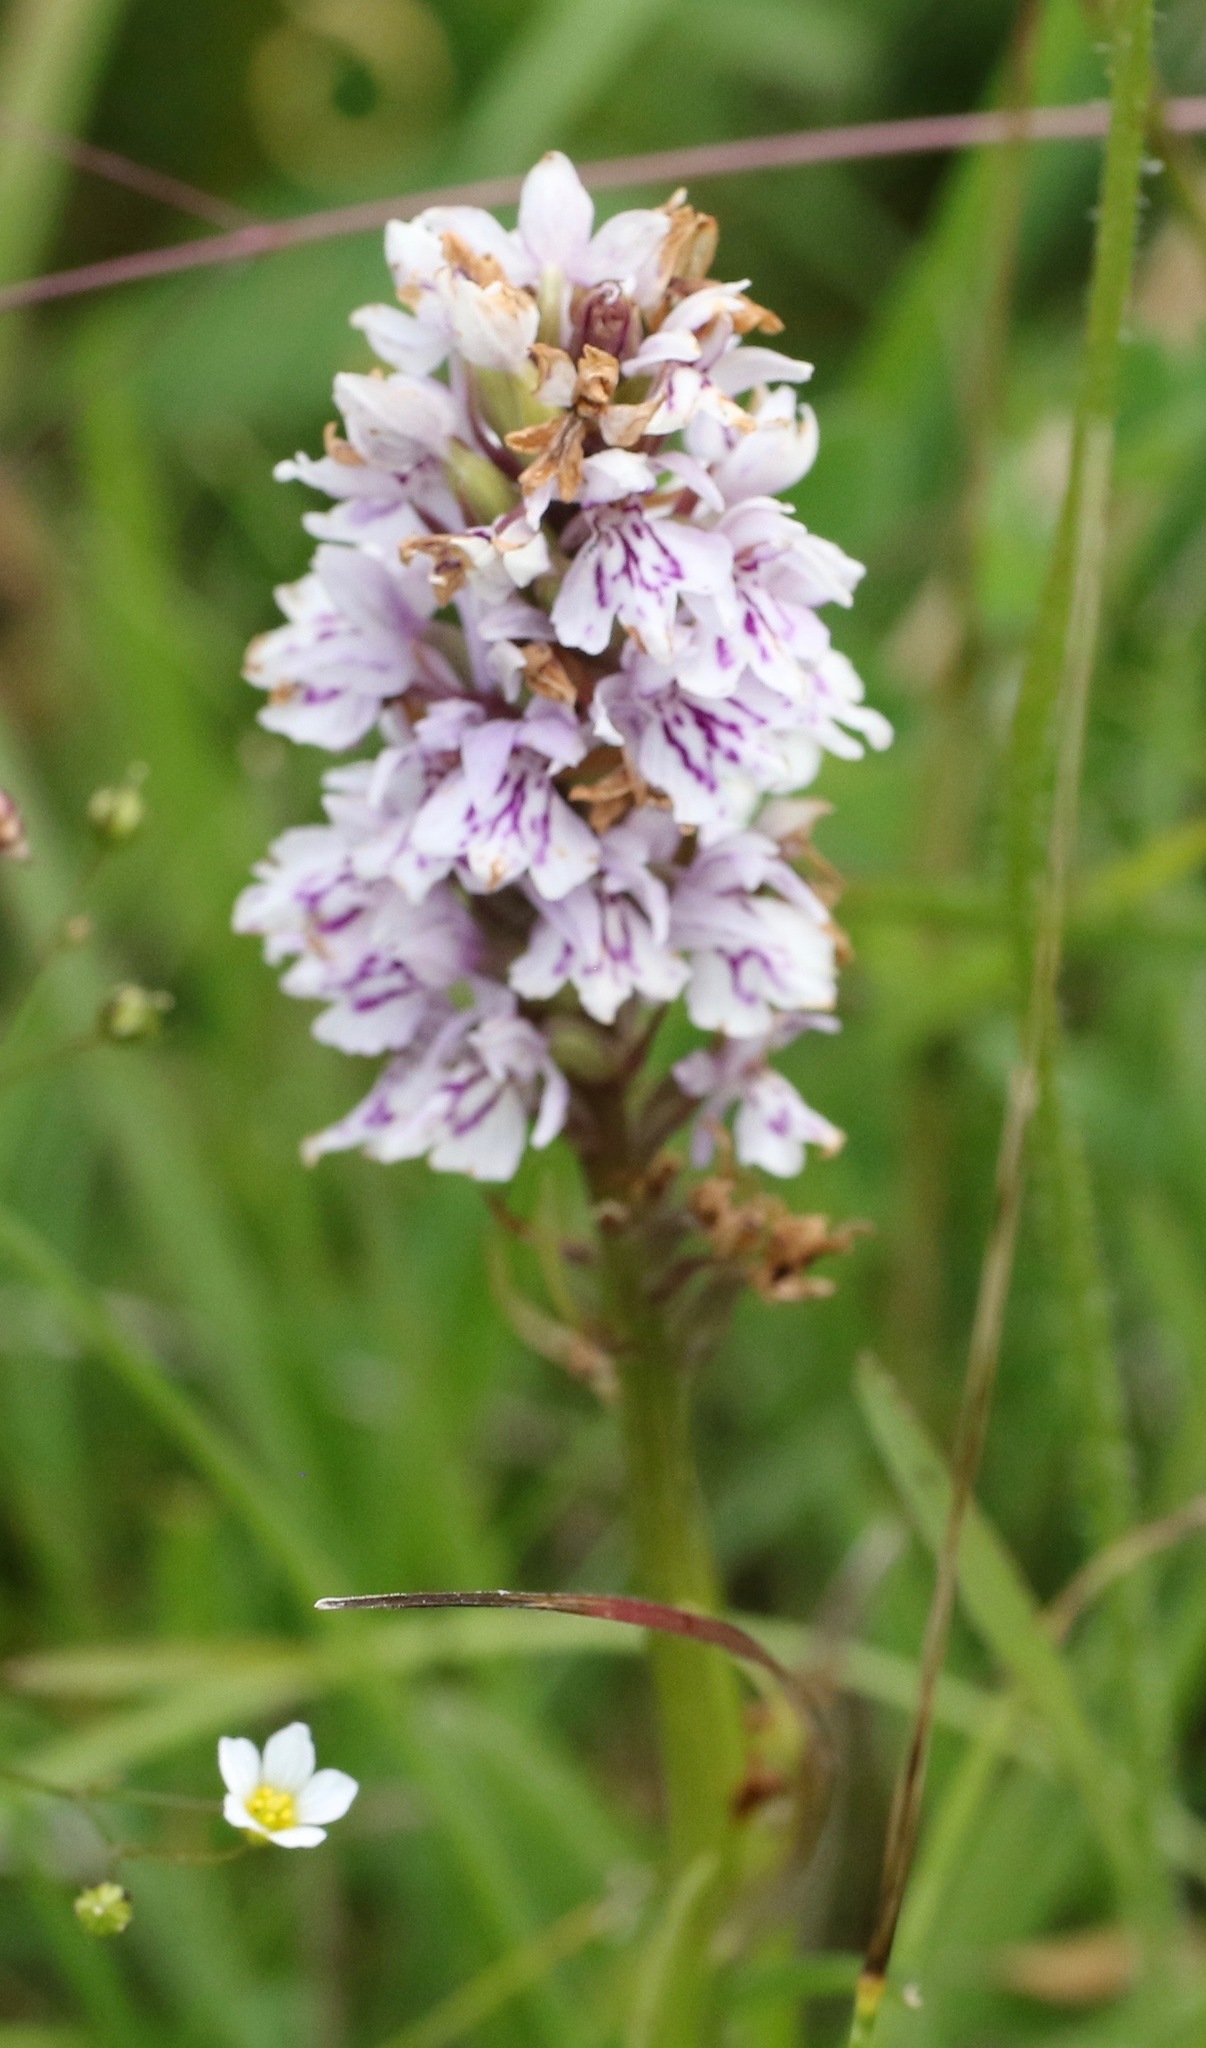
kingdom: Plantae
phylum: Tracheophyta
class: Liliopsida
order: Asparagales
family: Orchidaceae
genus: Dactylorhiza
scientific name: Dactylorhiza maculata
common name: Heath spotted-orchid
